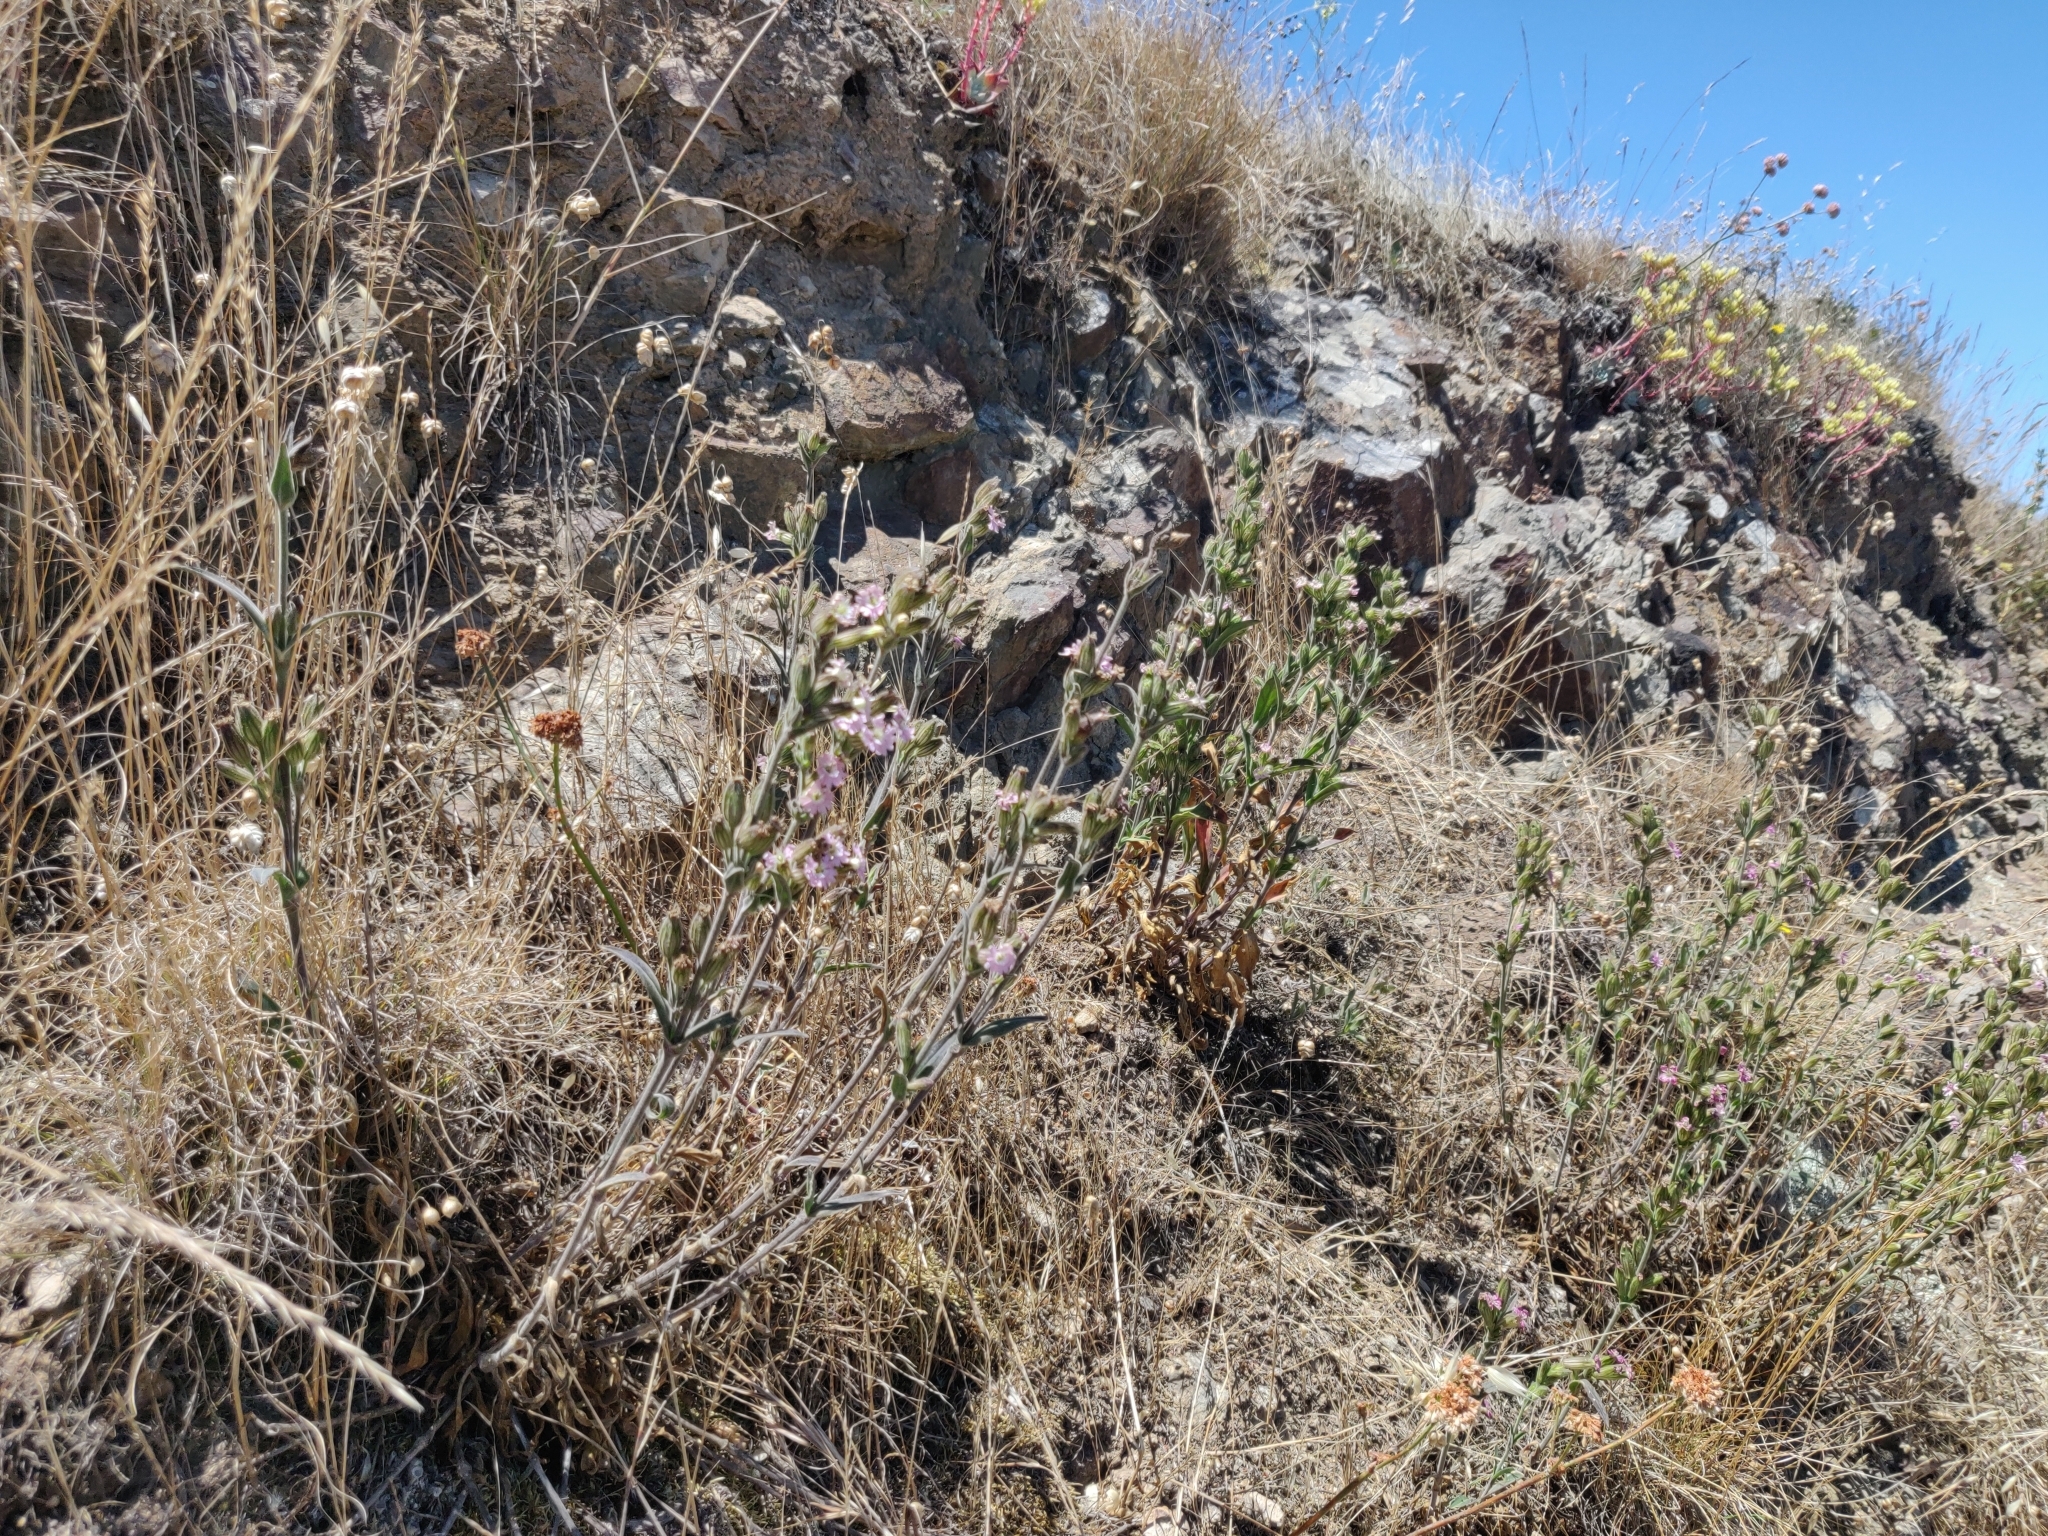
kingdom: Plantae
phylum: Tracheophyta
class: Magnoliopsida
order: Caryophyllales
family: Caryophyllaceae
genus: Silene
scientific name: Silene scouleri
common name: Scouler's campion
